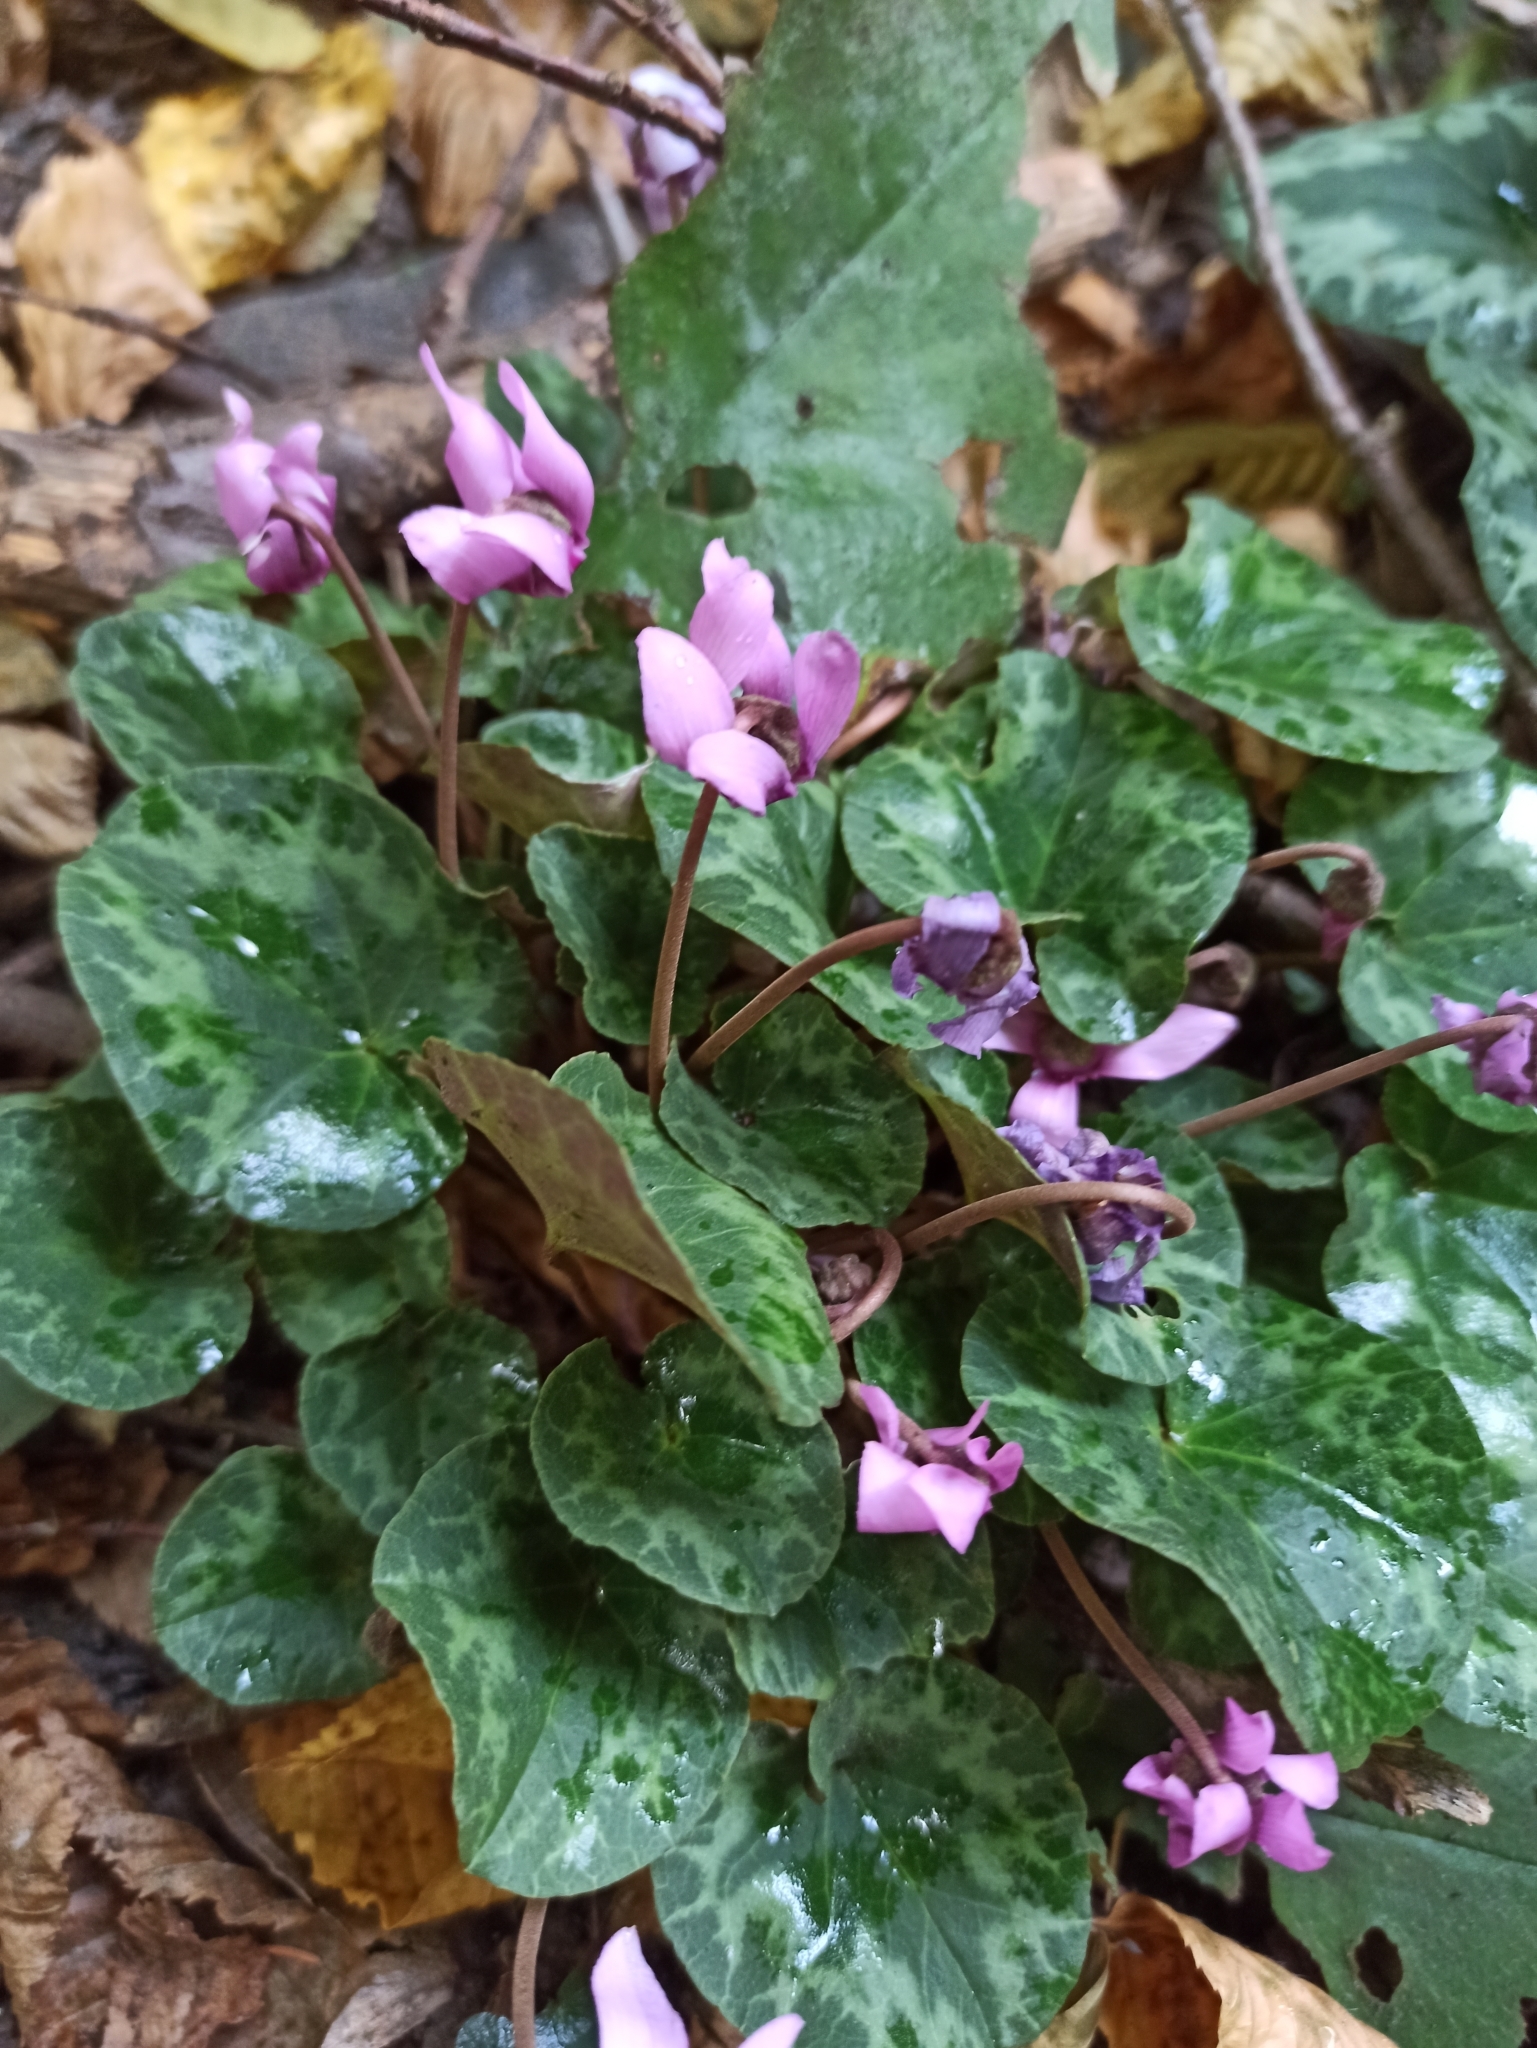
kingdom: Plantae
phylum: Tracheophyta
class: Magnoliopsida
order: Ericales
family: Primulaceae
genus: Cyclamen
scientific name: Cyclamen purpurascens
